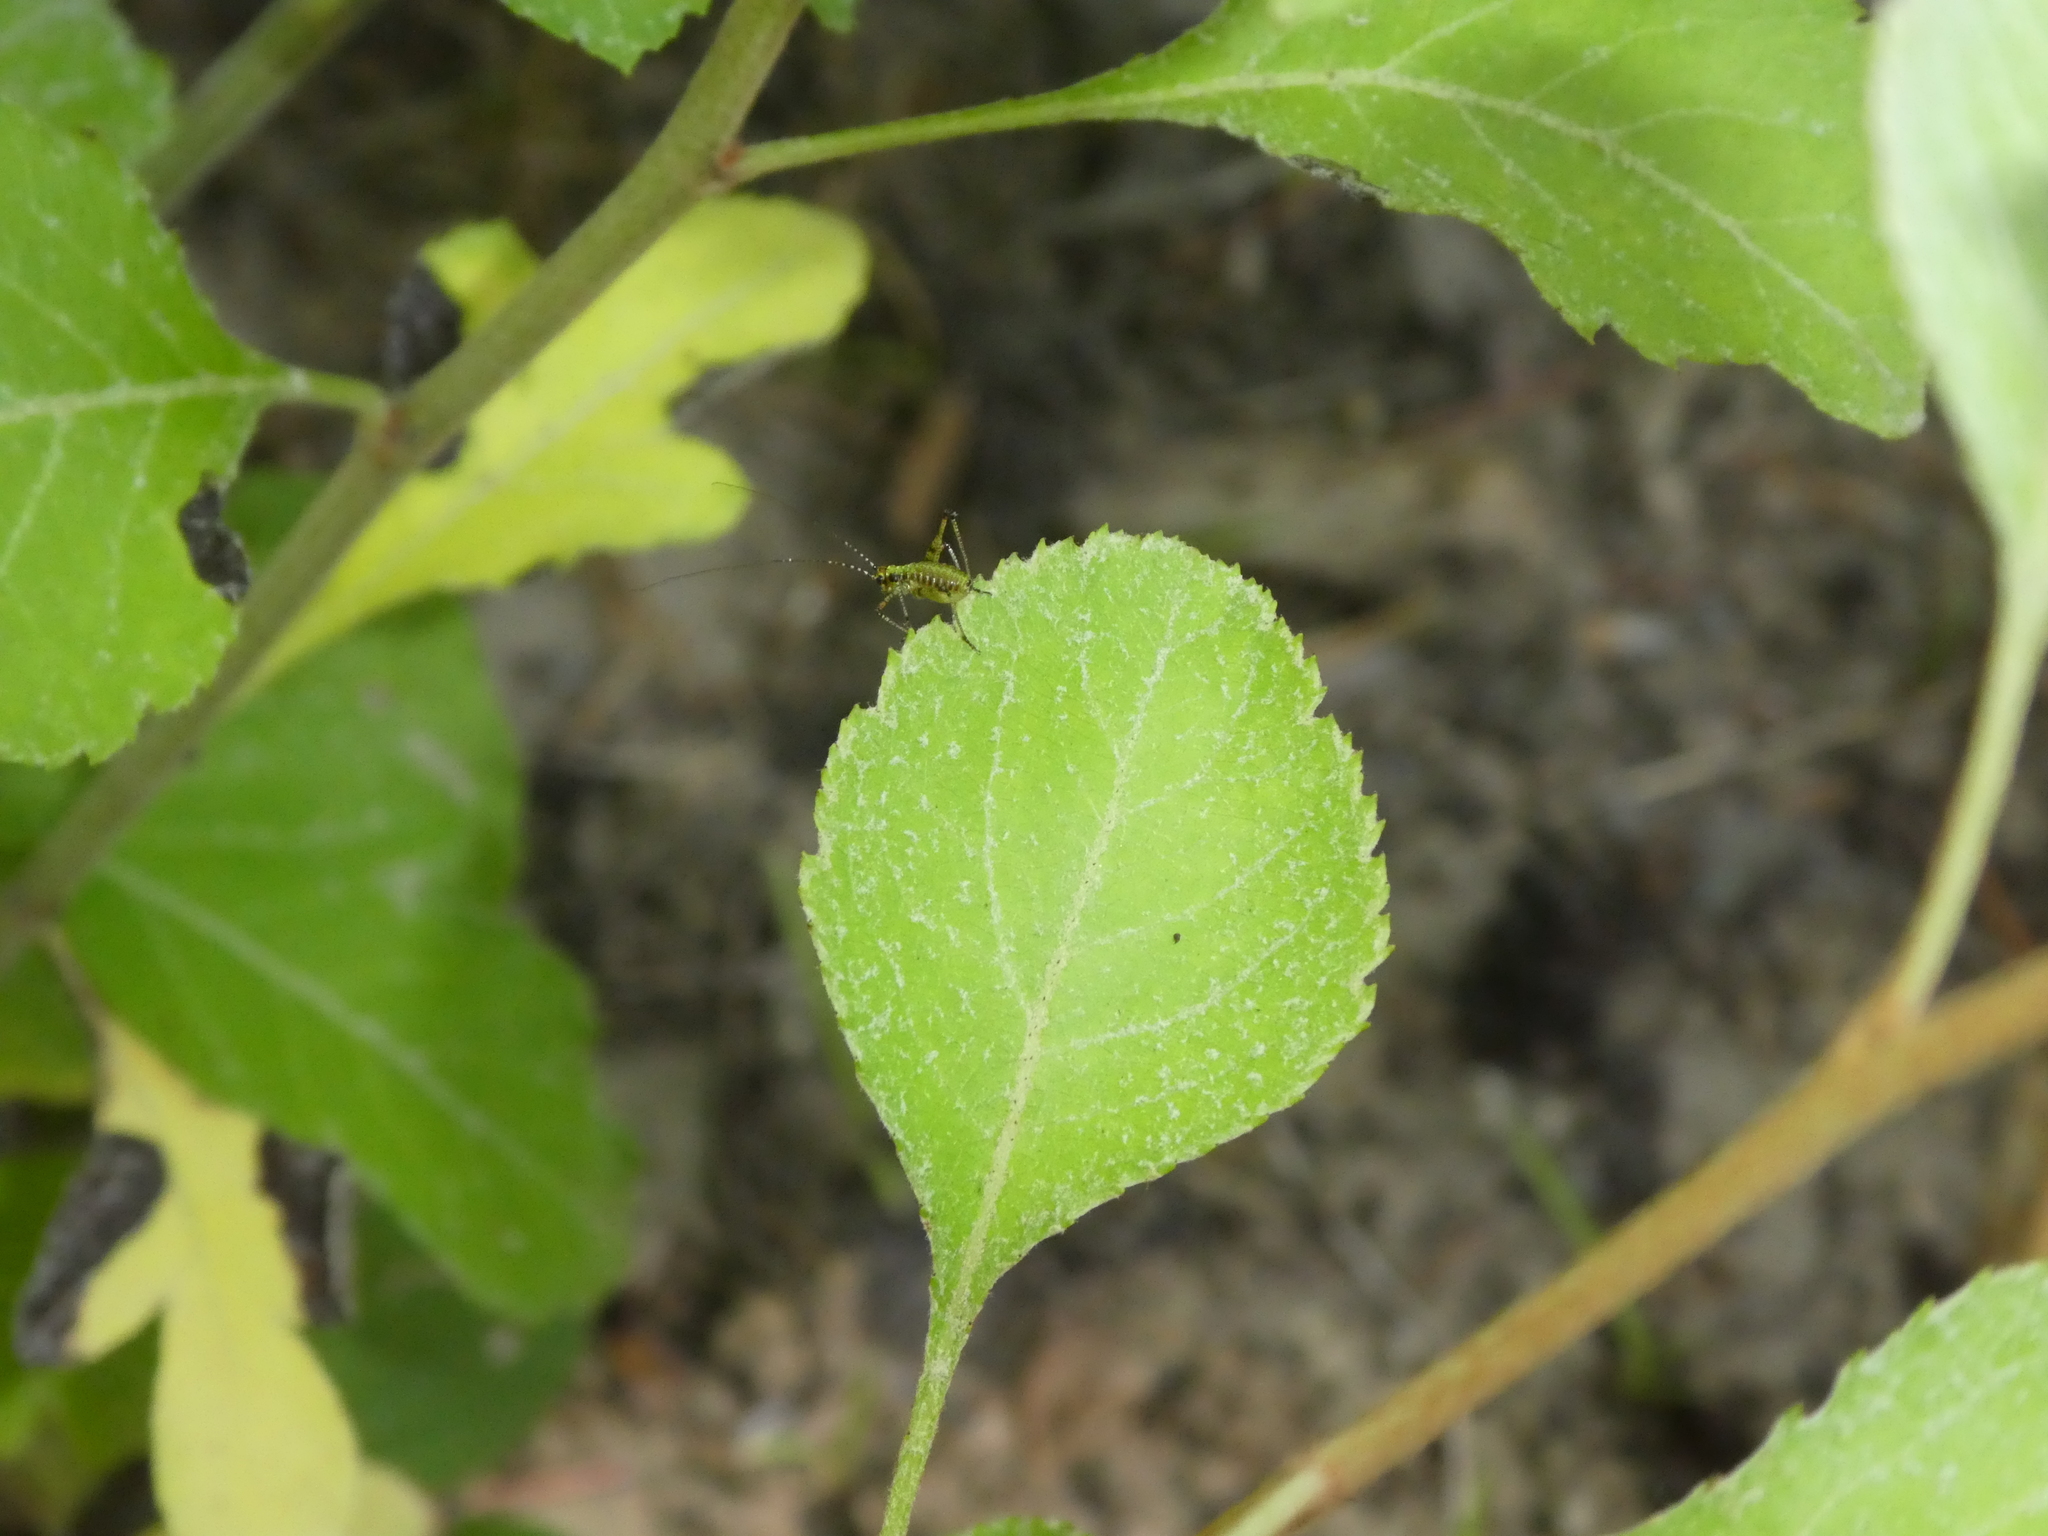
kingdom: Animalia
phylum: Arthropoda
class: Insecta
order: Orthoptera
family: Tettigoniidae
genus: Phaneroptera
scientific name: Phaneroptera nana
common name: Southern sickle bush-cricket
